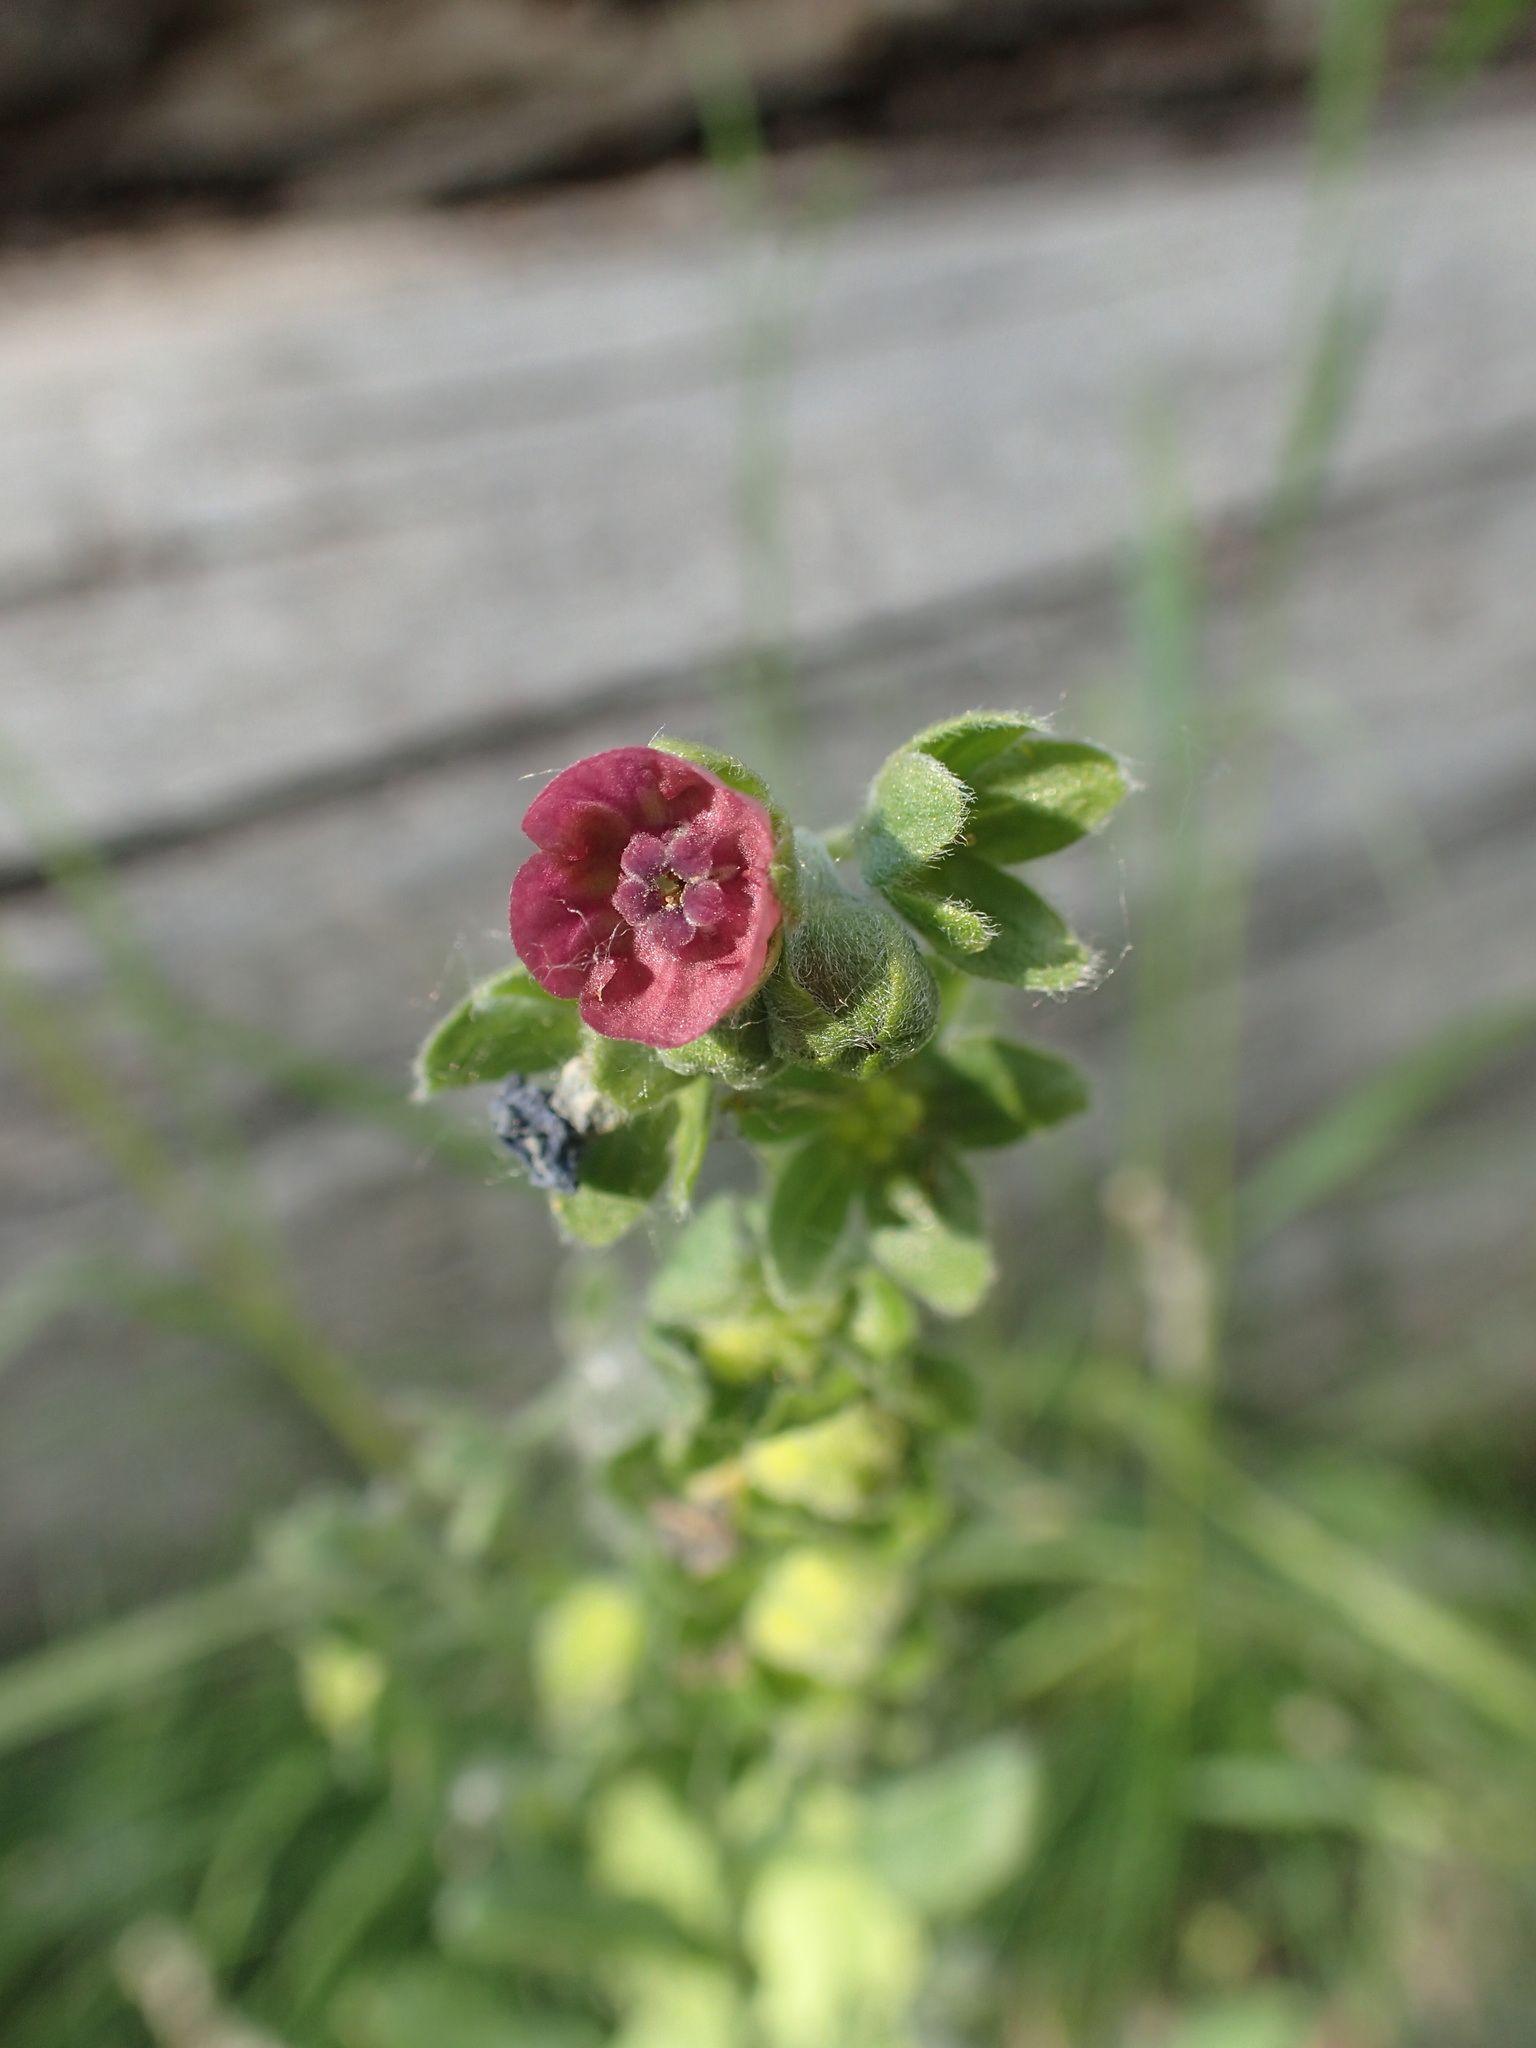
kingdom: Plantae
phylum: Tracheophyta
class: Magnoliopsida
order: Boraginales
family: Boraginaceae
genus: Cynoglossum
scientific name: Cynoglossum officinale
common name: Hound's-tongue
